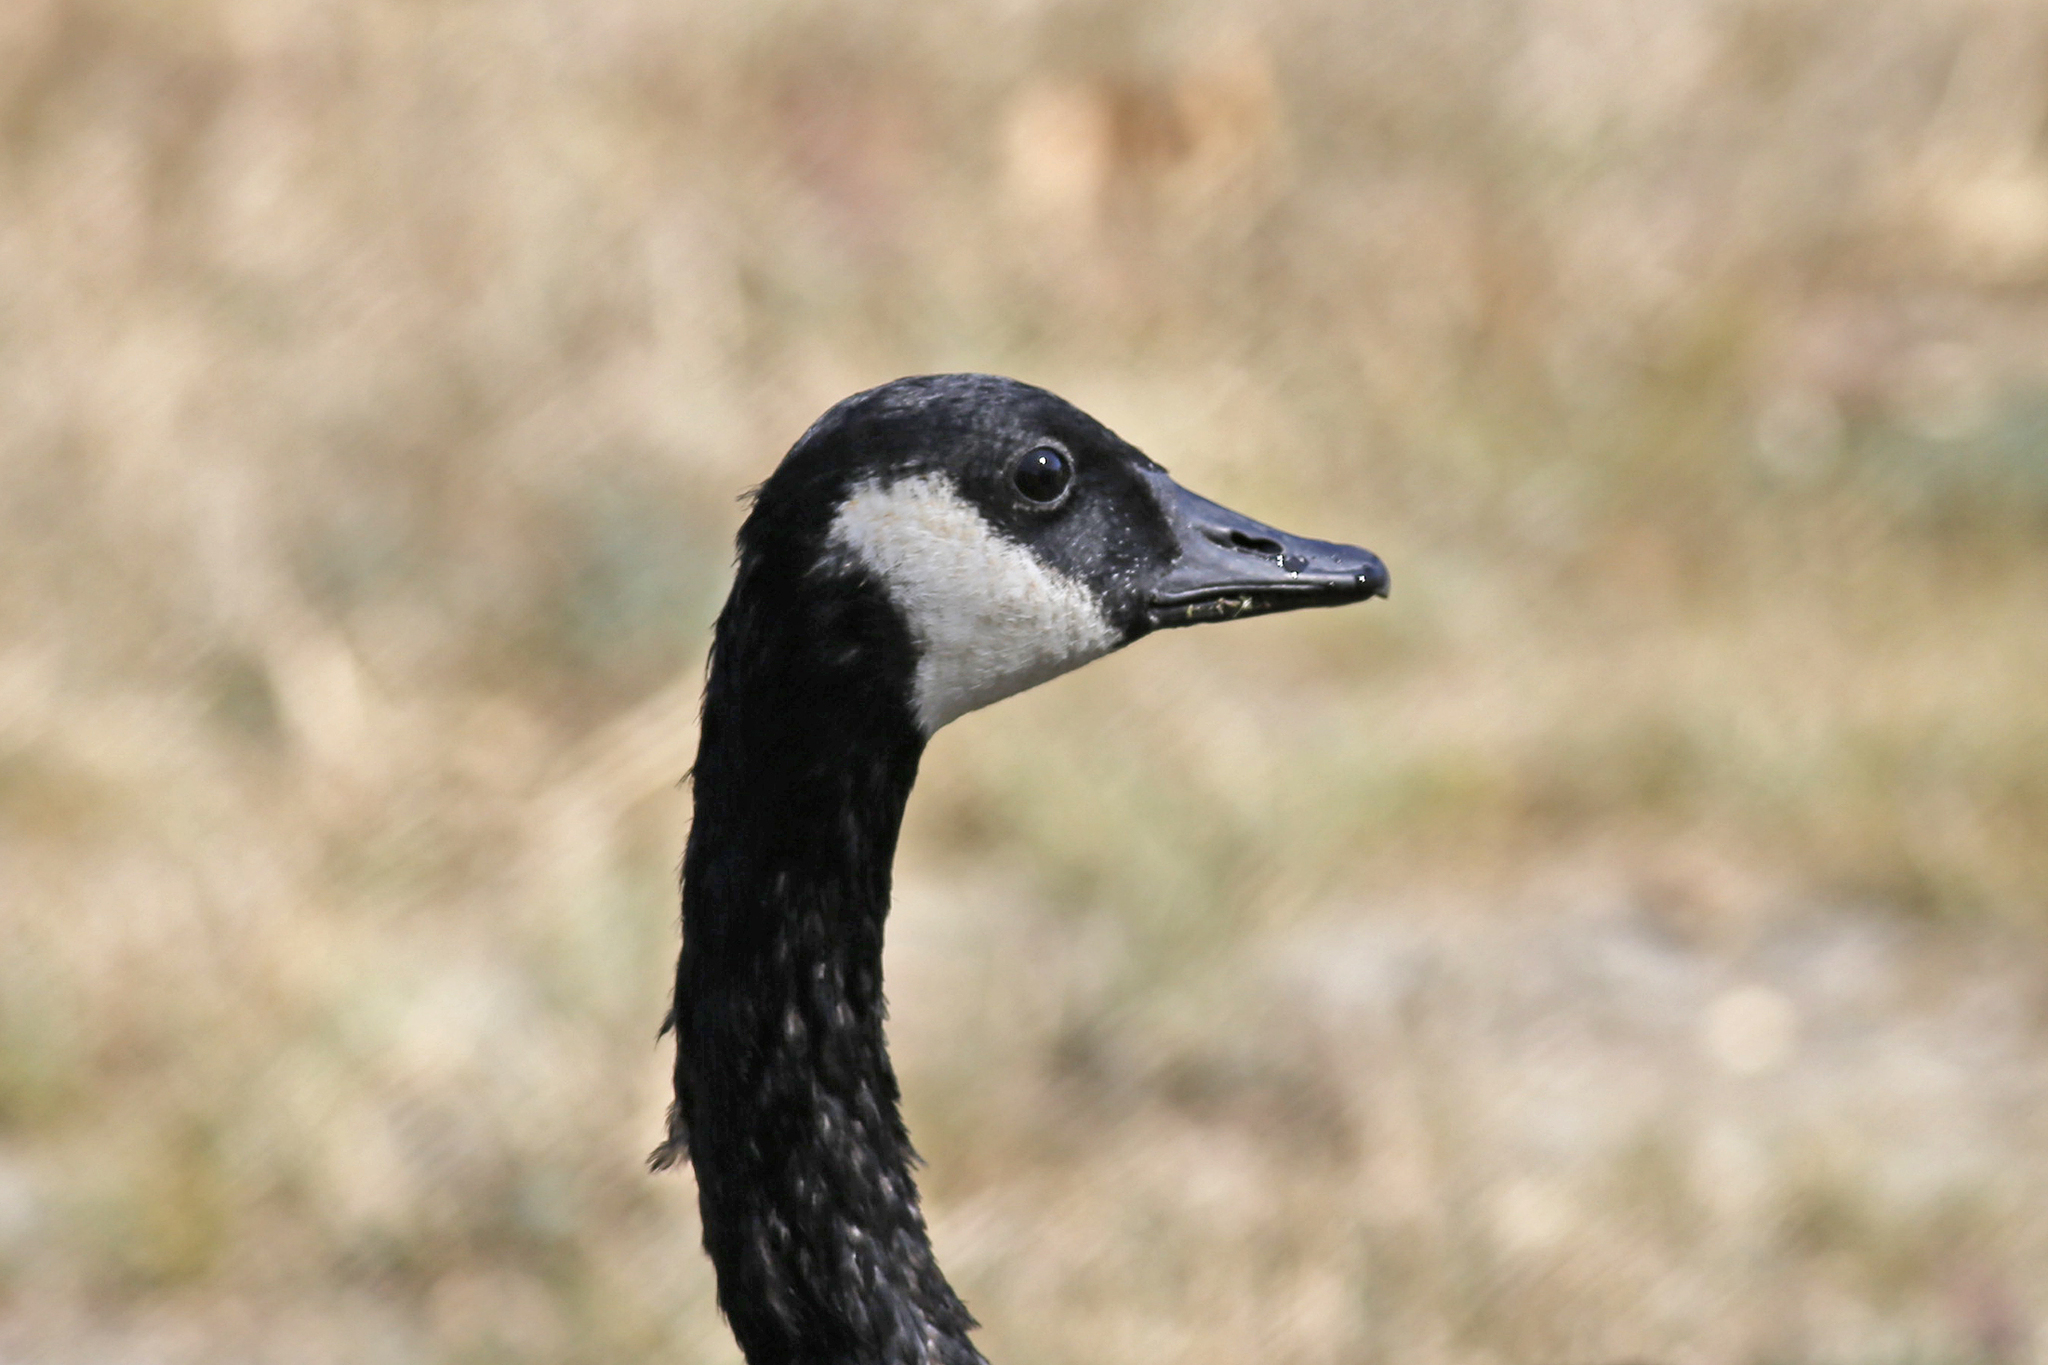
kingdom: Animalia
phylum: Chordata
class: Aves
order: Anseriformes
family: Anatidae
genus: Branta
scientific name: Branta canadensis
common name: Canada goose
